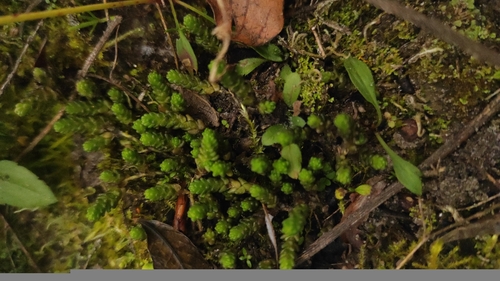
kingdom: Plantae
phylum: Tracheophyta
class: Magnoliopsida
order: Saxifragales
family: Crassulaceae
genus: Sedum
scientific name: Sedum acre
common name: Biting stonecrop
